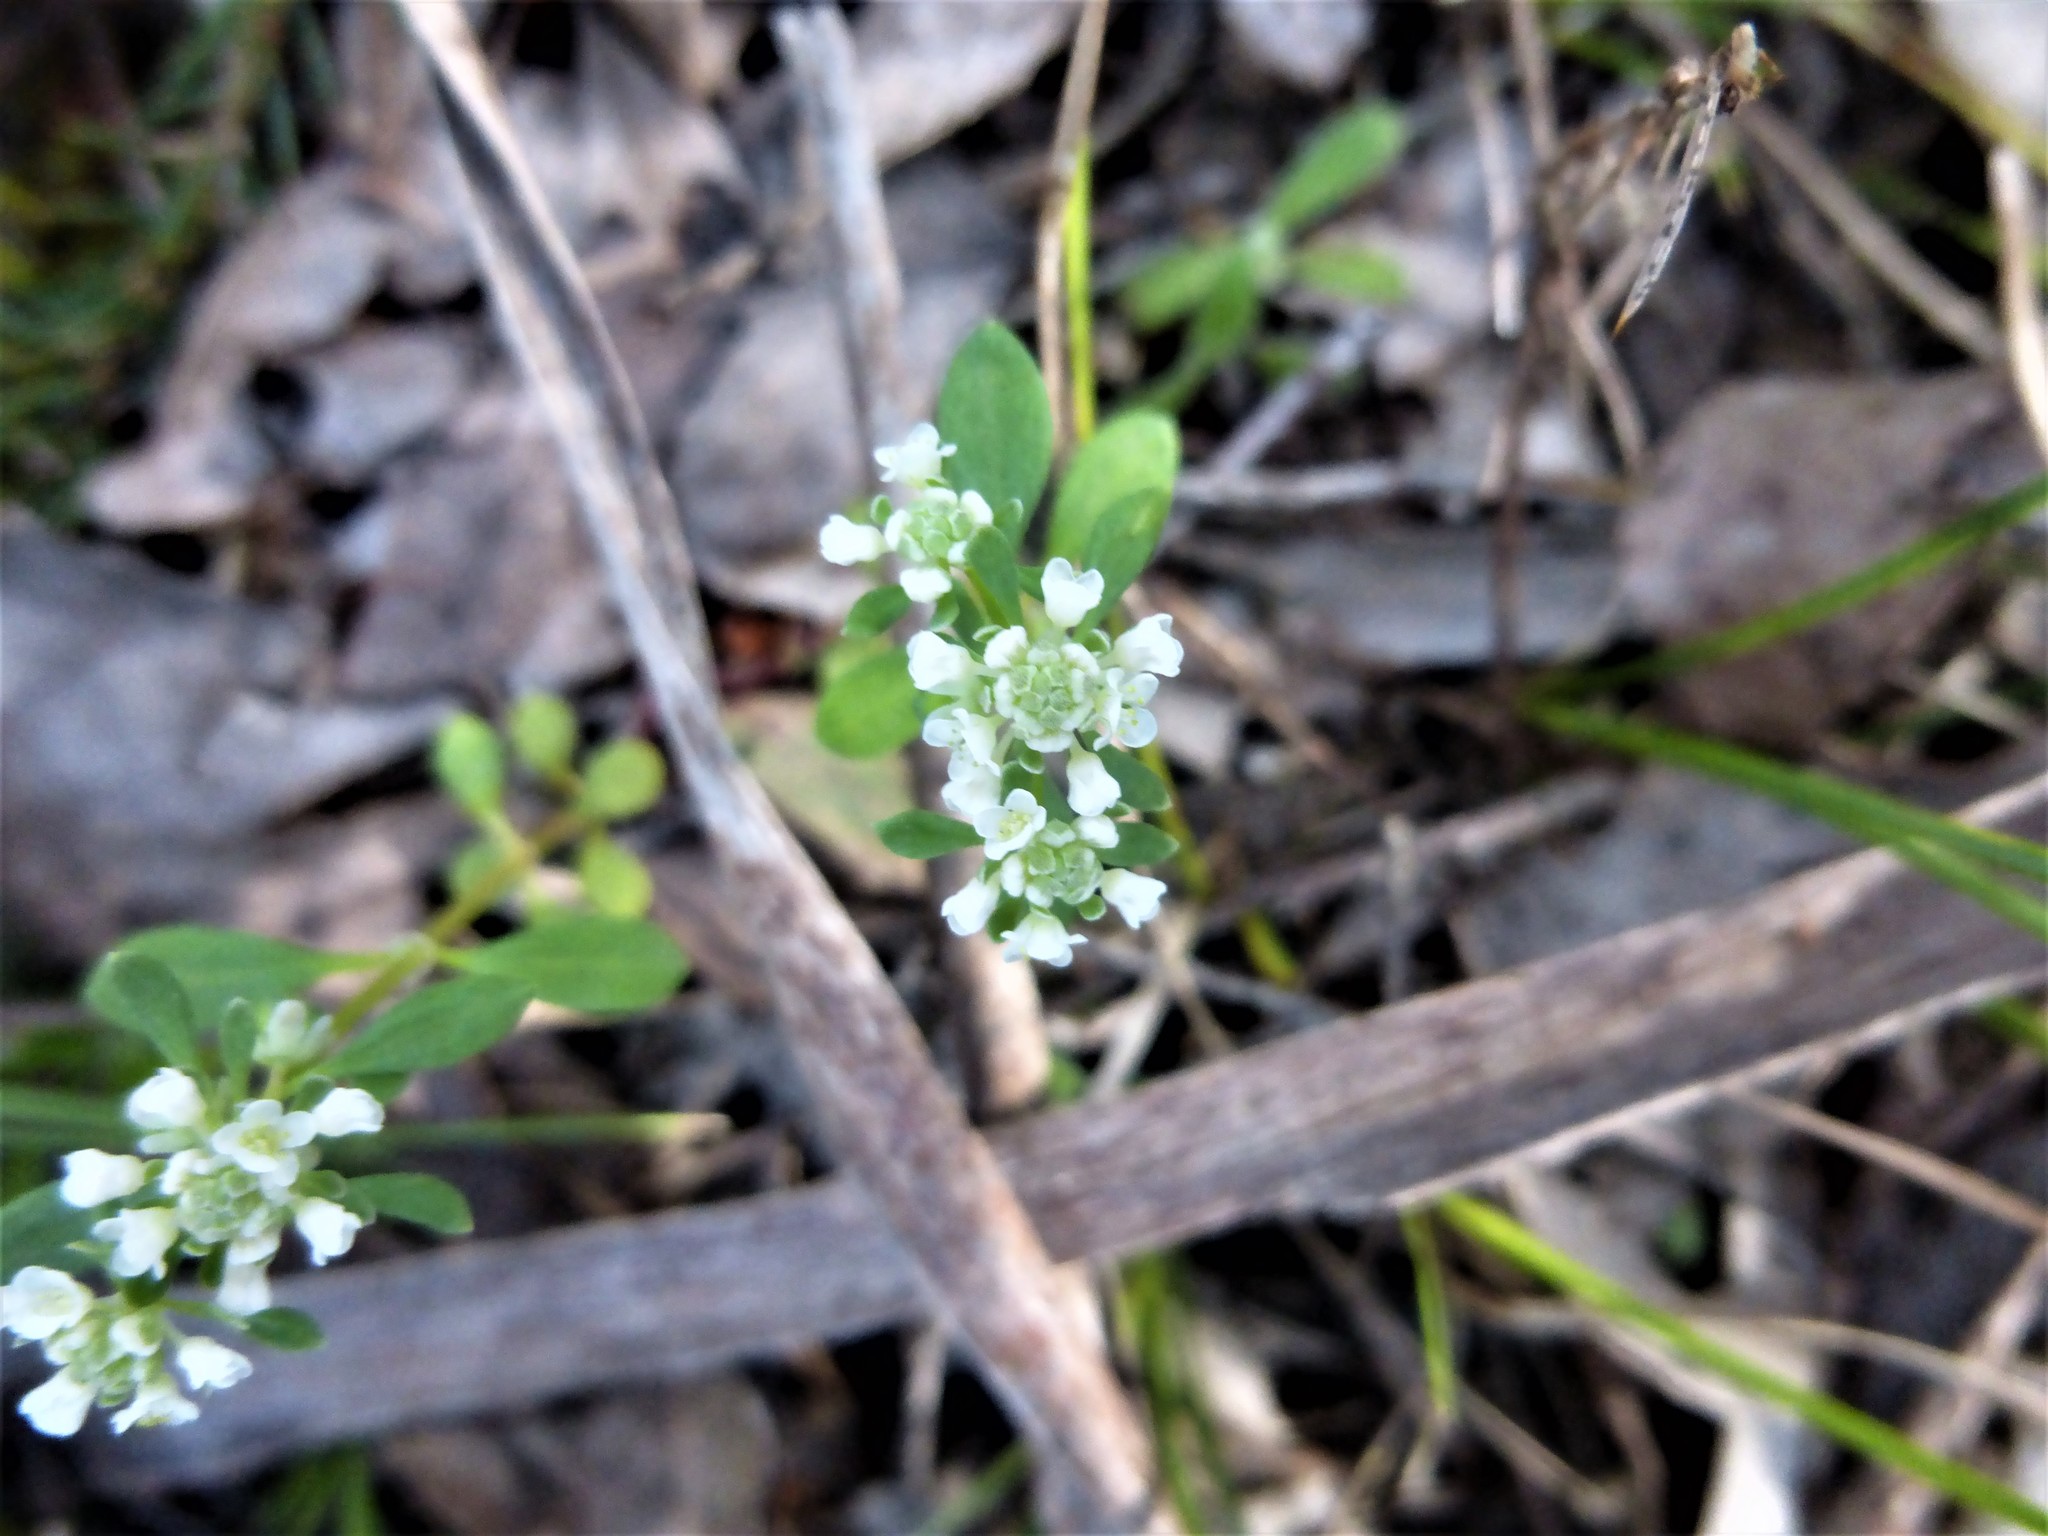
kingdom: Plantae
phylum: Tracheophyta
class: Magnoliopsida
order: Malpighiales
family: Phyllanthaceae
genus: Poranthera
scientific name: Poranthera microphylla
